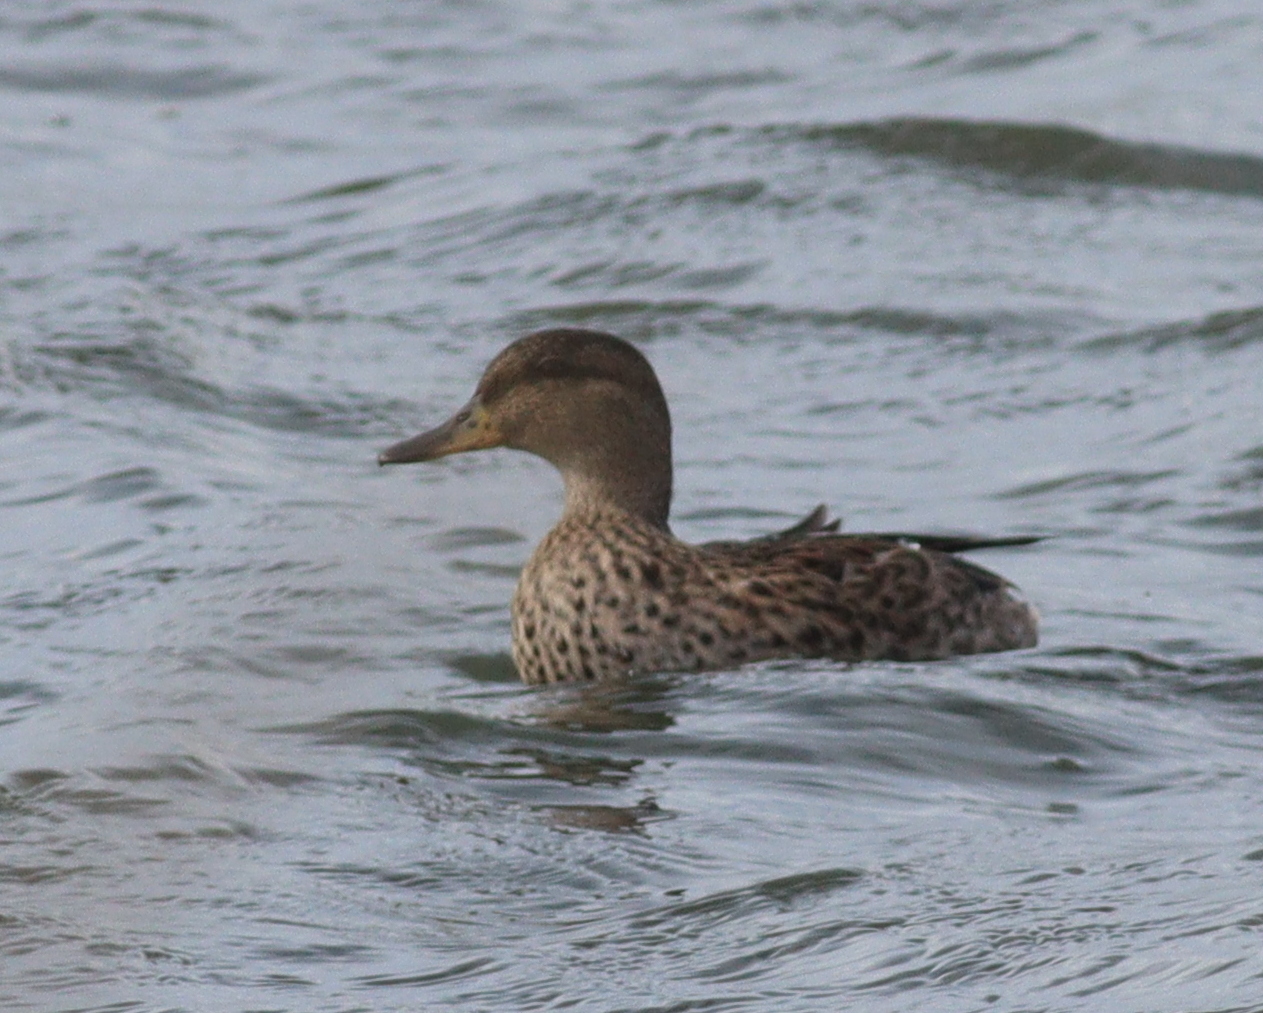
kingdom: Animalia
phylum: Chordata
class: Aves
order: Anseriformes
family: Anatidae
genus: Anas
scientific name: Anas crecca
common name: Eurasian teal
